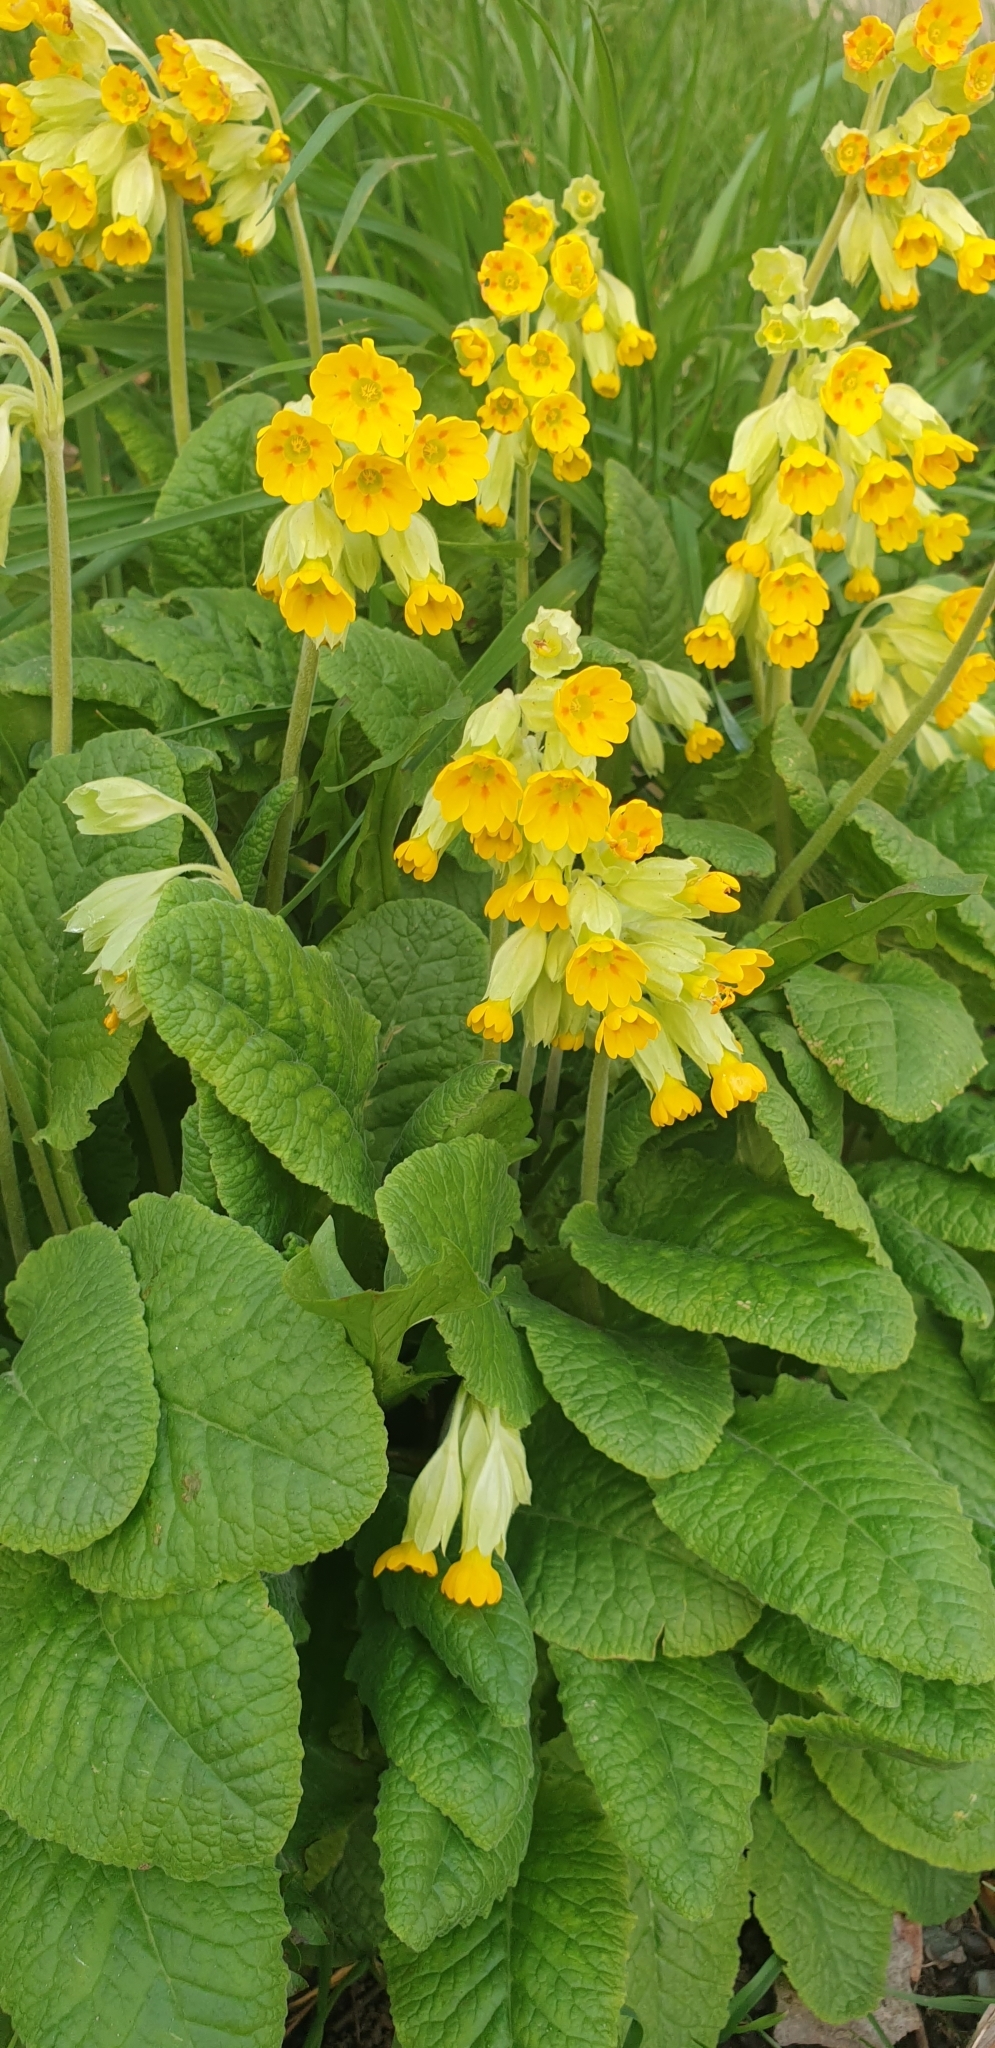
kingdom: Plantae
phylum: Tracheophyta
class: Magnoliopsida
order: Ericales
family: Primulaceae
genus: Primula
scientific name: Primula veris
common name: Cowslip
